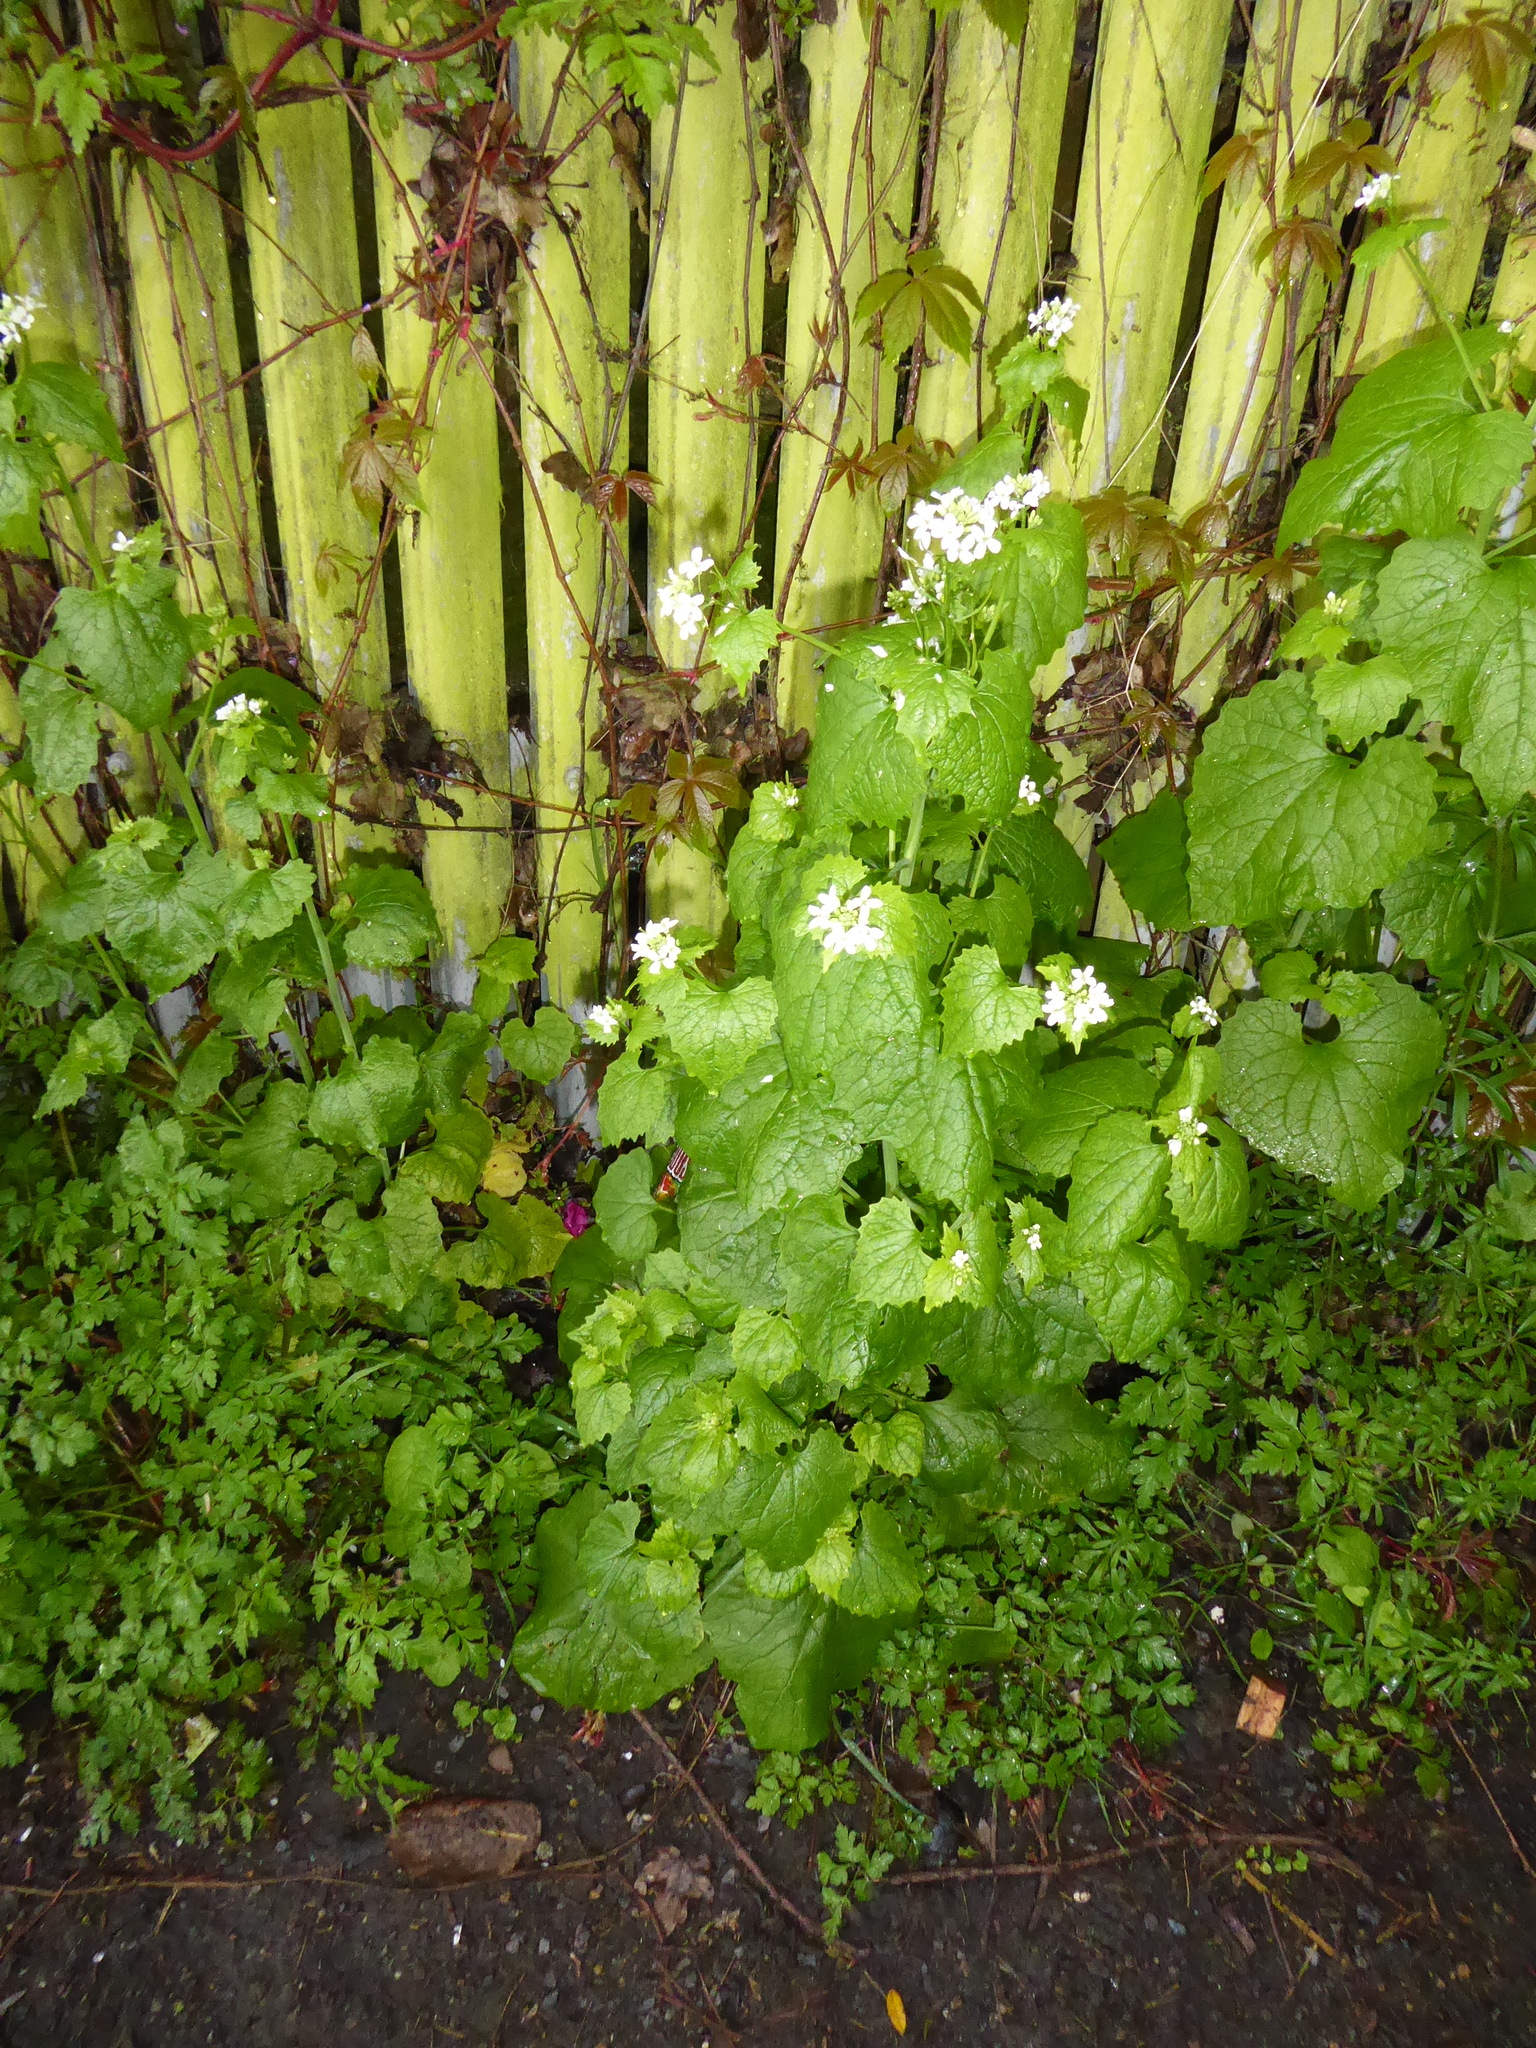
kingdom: Plantae
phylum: Tracheophyta
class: Magnoliopsida
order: Brassicales
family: Brassicaceae
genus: Alliaria
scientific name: Alliaria petiolata
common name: Garlic mustard
